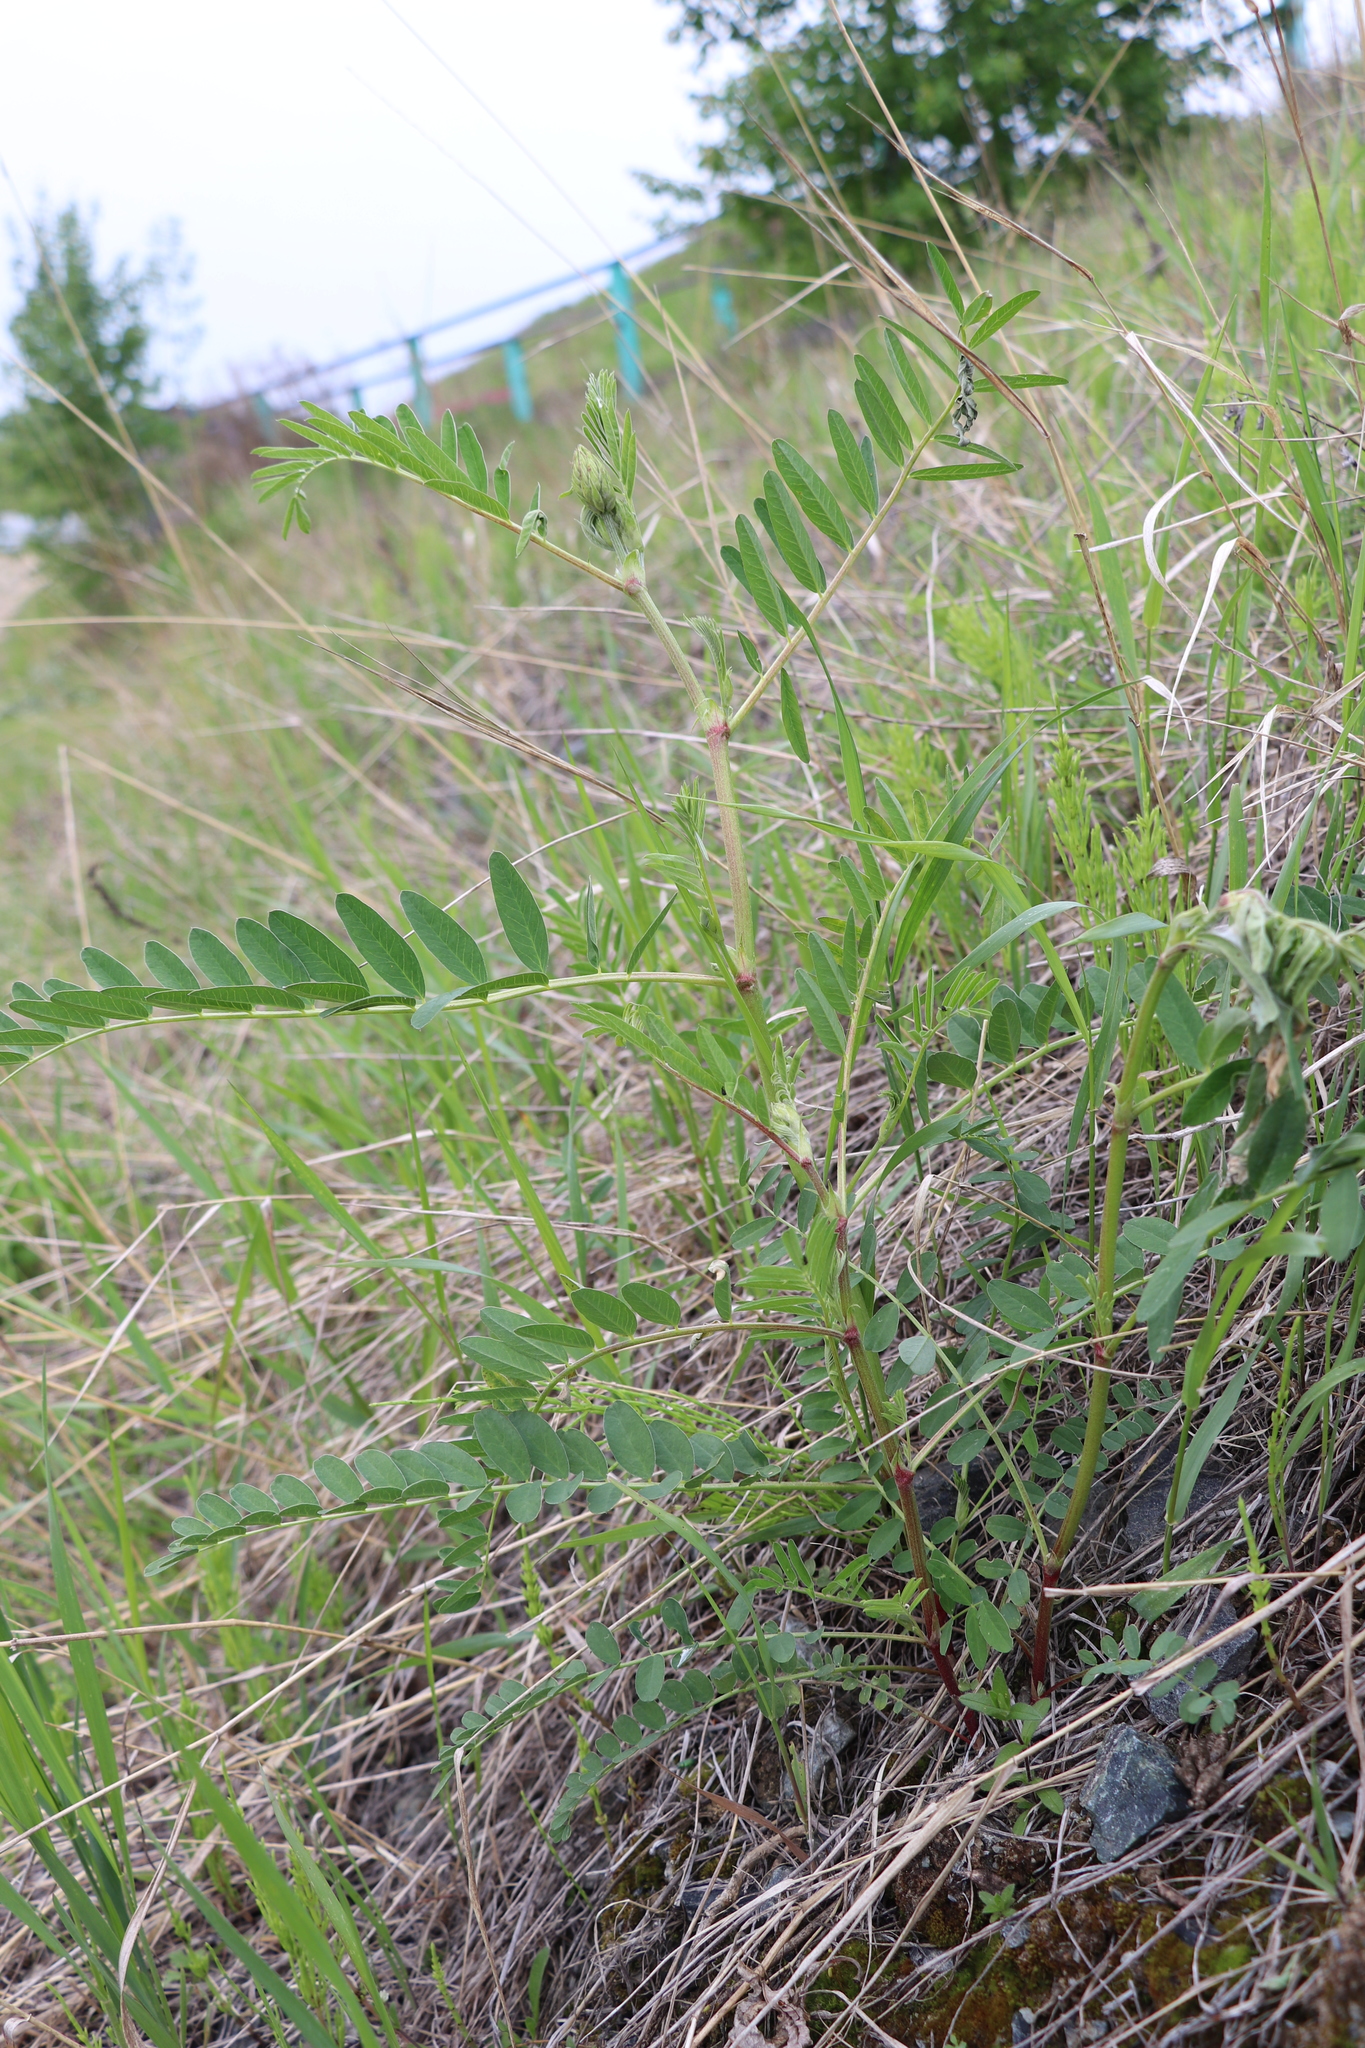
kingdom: Plantae
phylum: Tracheophyta
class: Magnoliopsida
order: Fabales
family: Fabaceae
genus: Astragalus
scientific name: Astragalus uliginosus
